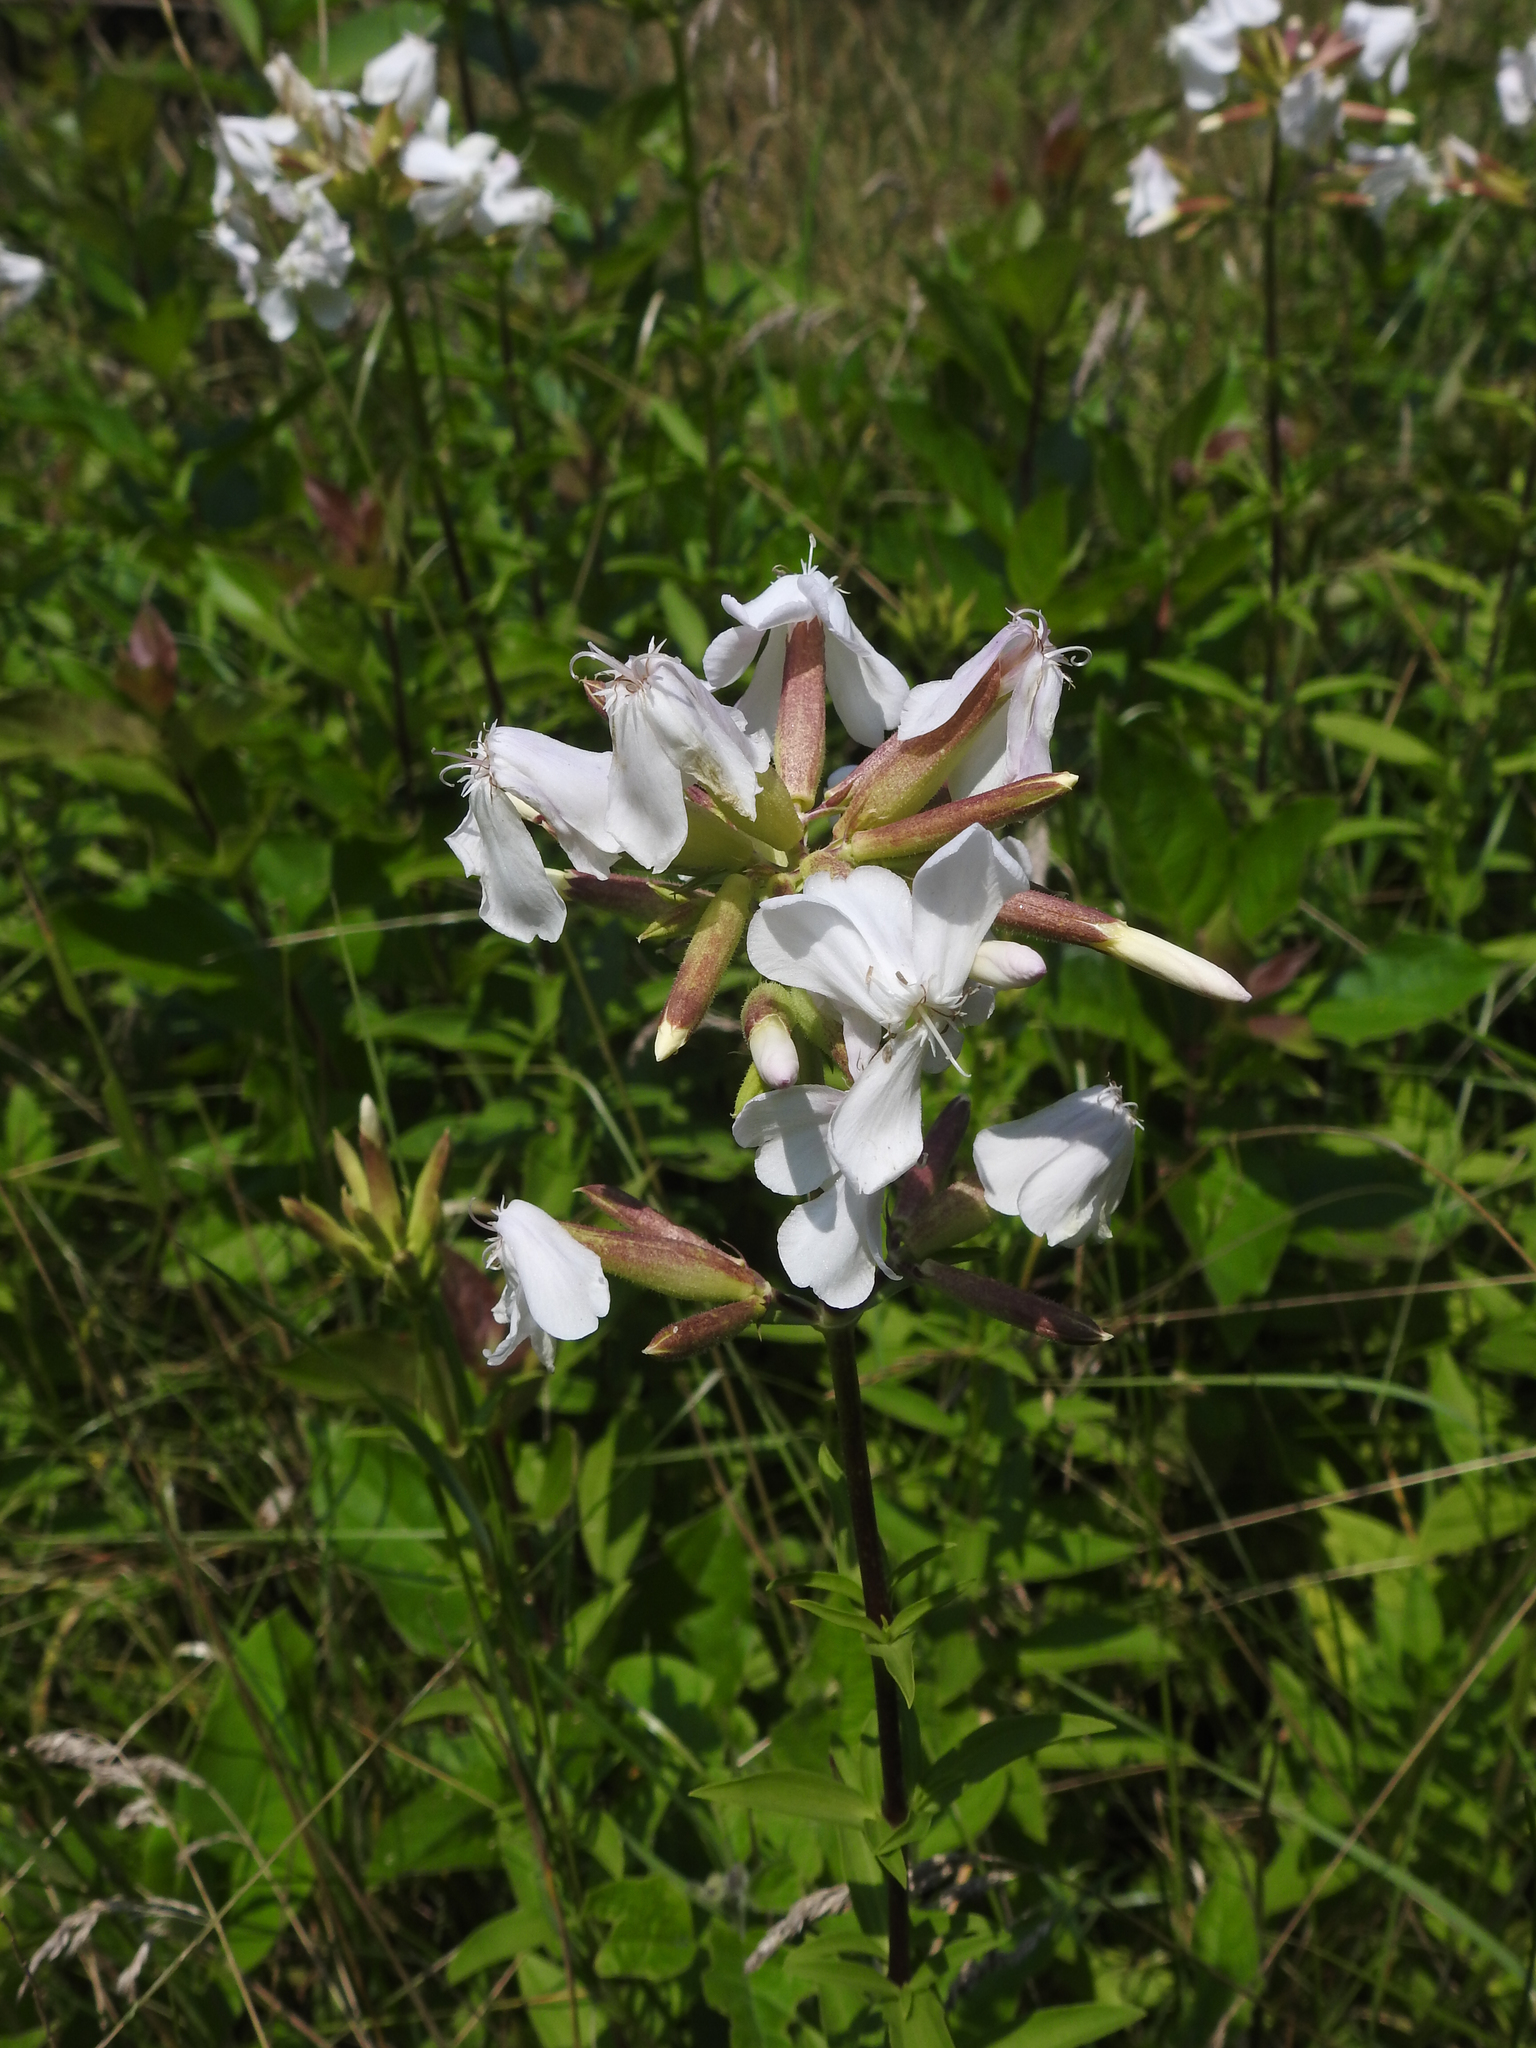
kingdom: Plantae
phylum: Tracheophyta
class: Magnoliopsida
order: Caryophyllales
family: Caryophyllaceae
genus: Saponaria
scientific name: Saponaria officinalis
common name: Soapwort
